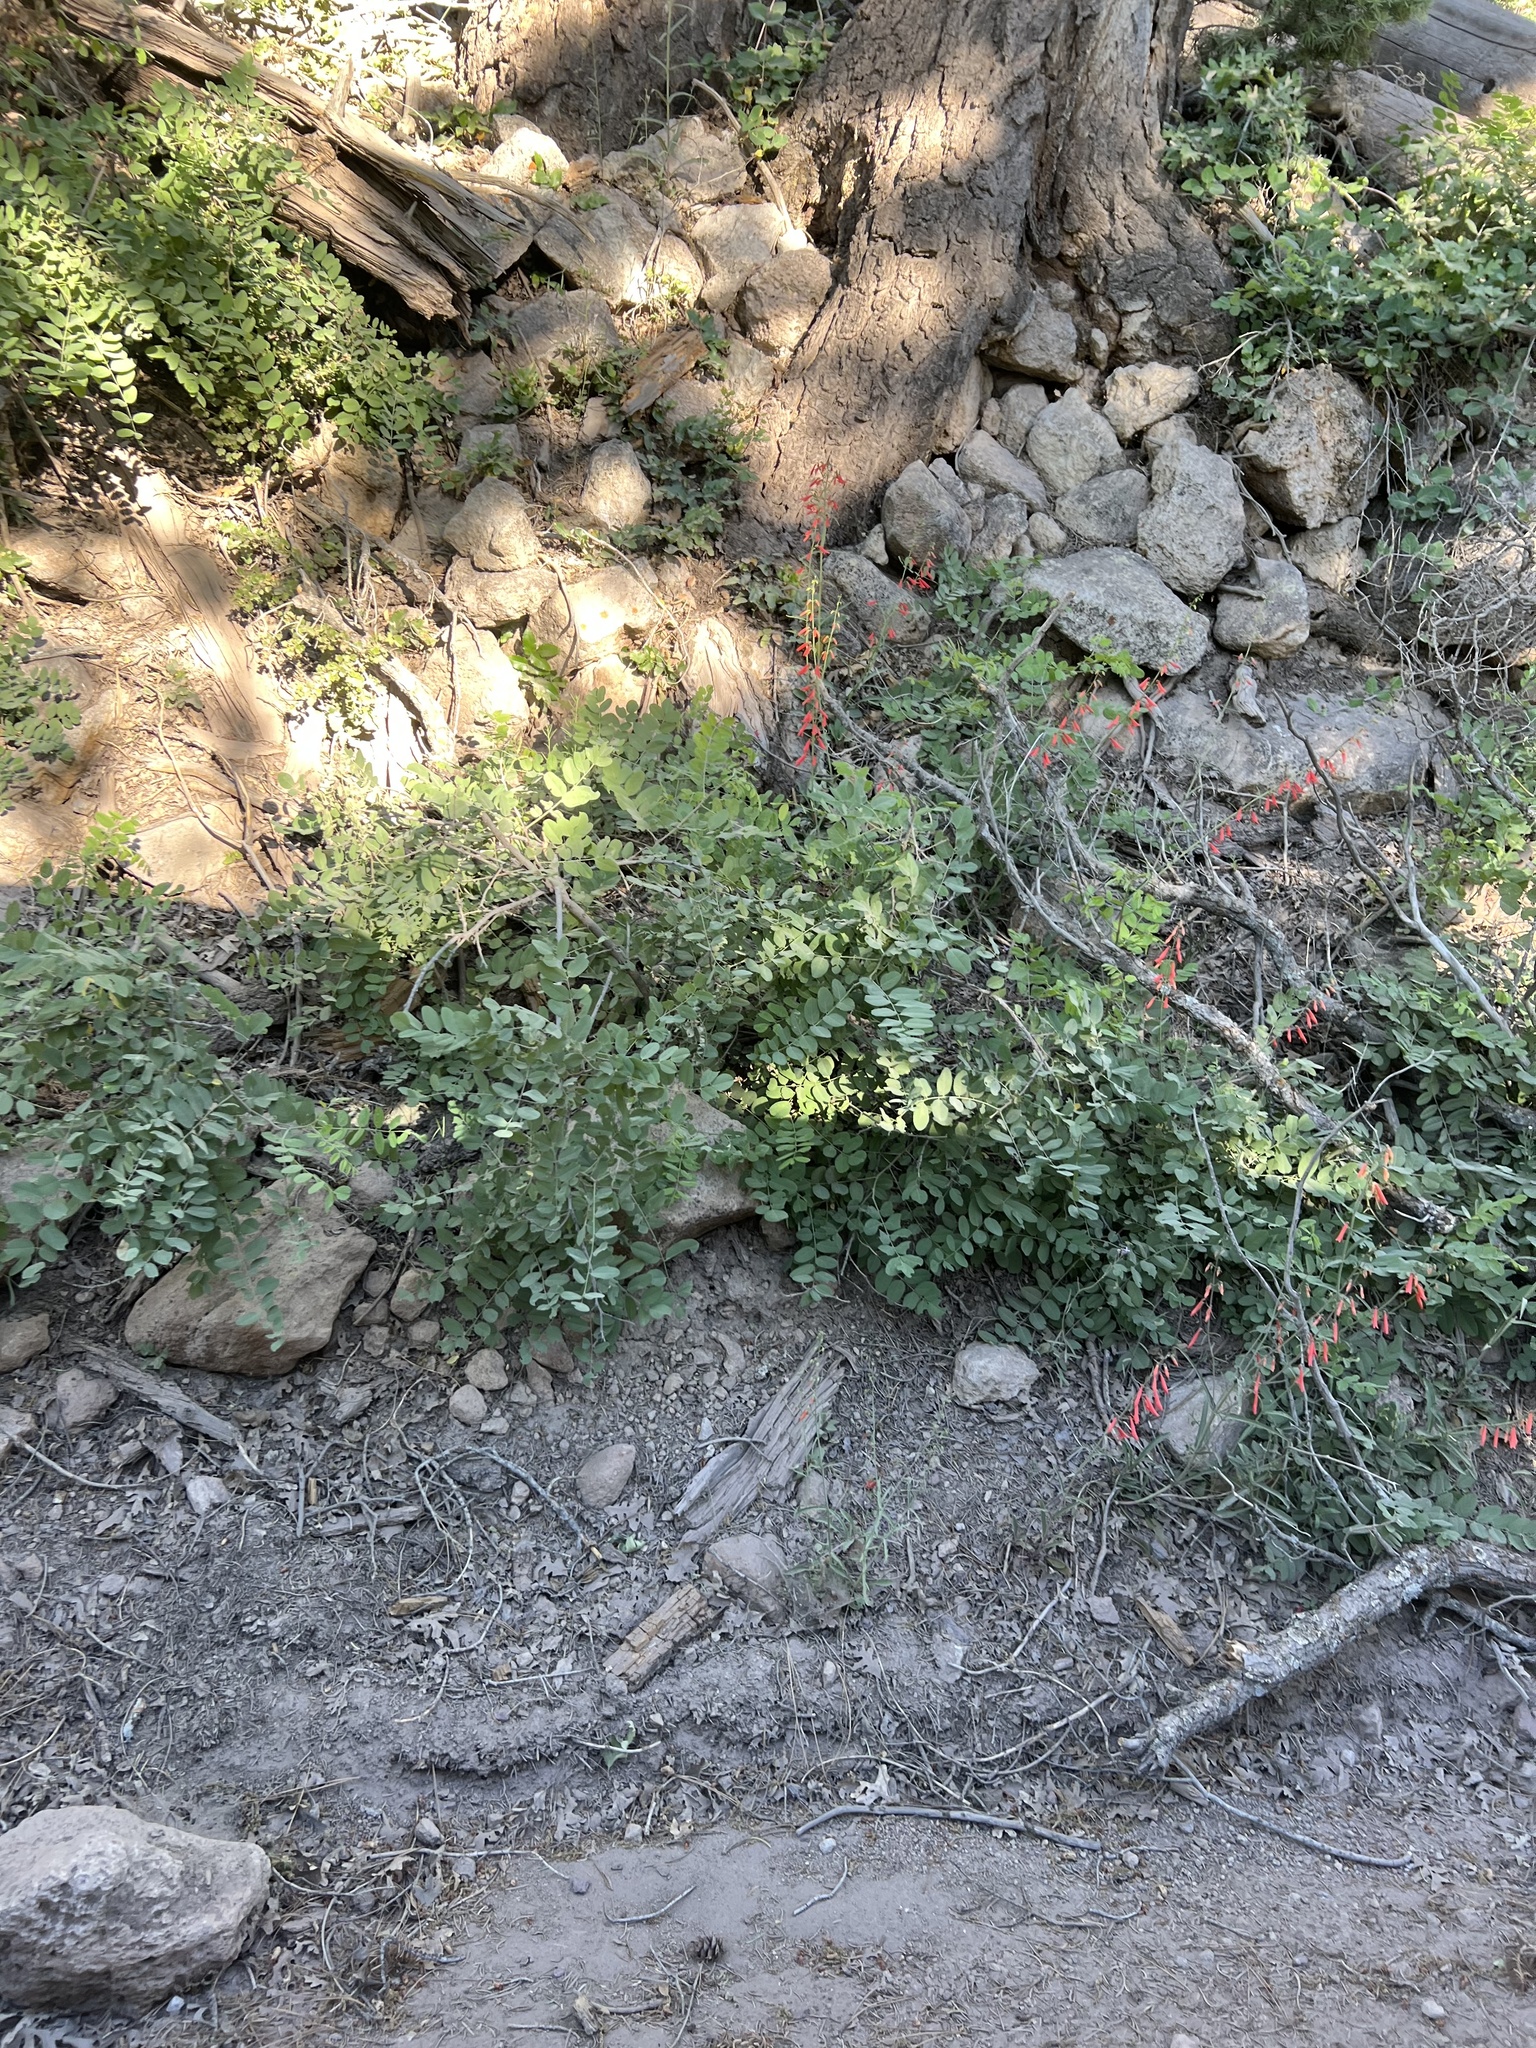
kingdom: Plantae
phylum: Tracheophyta
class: Magnoliopsida
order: Fabales
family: Fabaceae
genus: Robinia
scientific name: Robinia neomexicana
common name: New mexico locust
